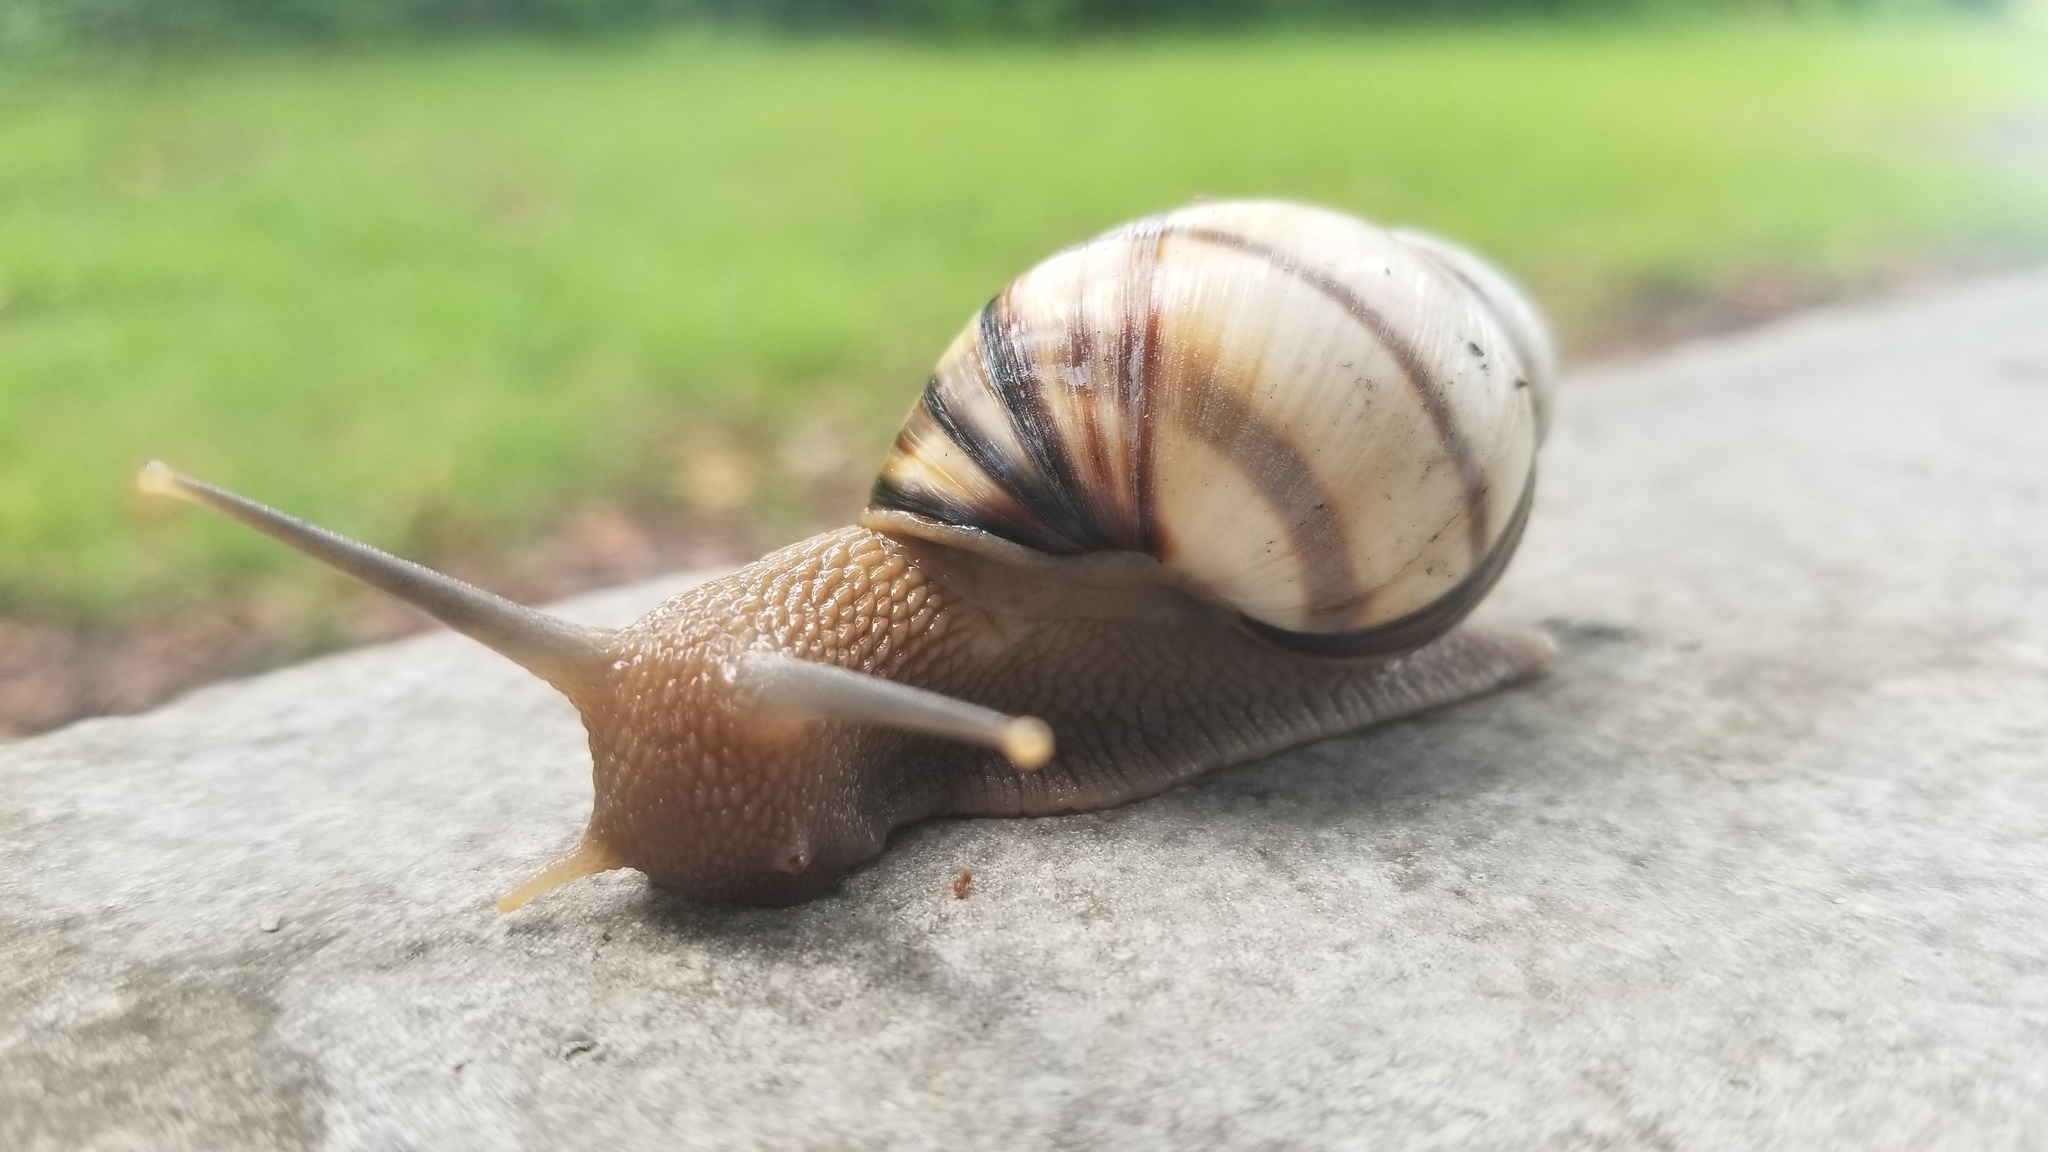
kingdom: Animalia
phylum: Mollusca
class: Gastropoda
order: Stylommatophora
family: Orthalicidae
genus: Orthalicus
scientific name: Orthalicus floridensis
